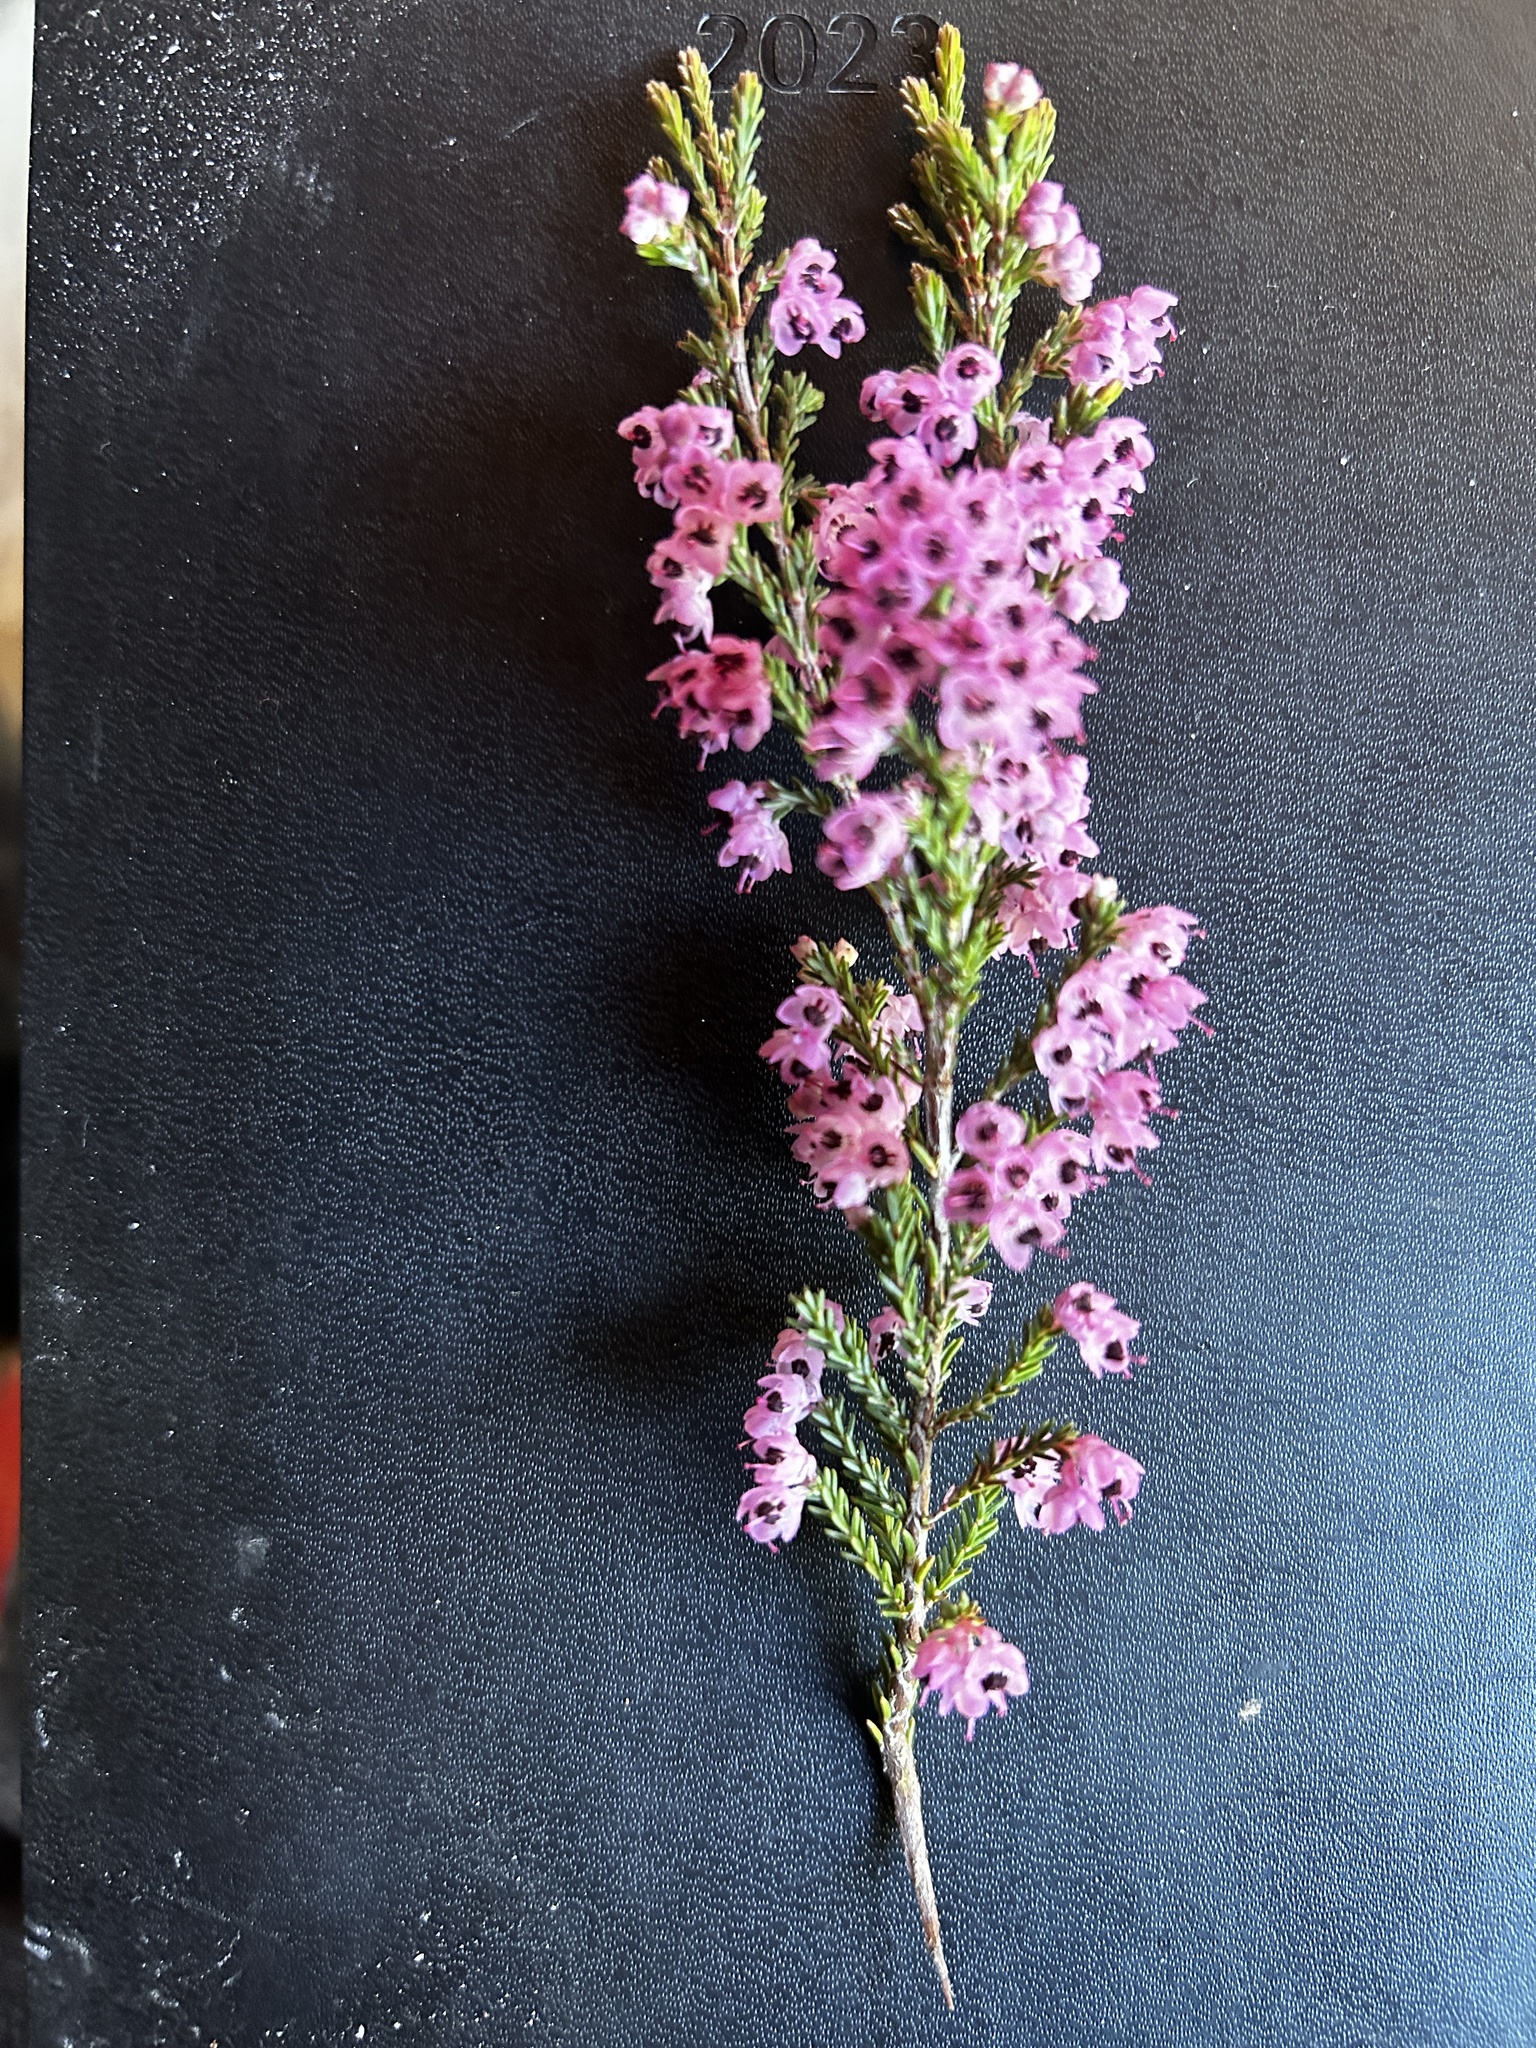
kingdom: Plantae
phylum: Tracheophyta
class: Magnoliopsida
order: Ericales
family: Ericaceae
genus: Erica
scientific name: Erica rhodantha
